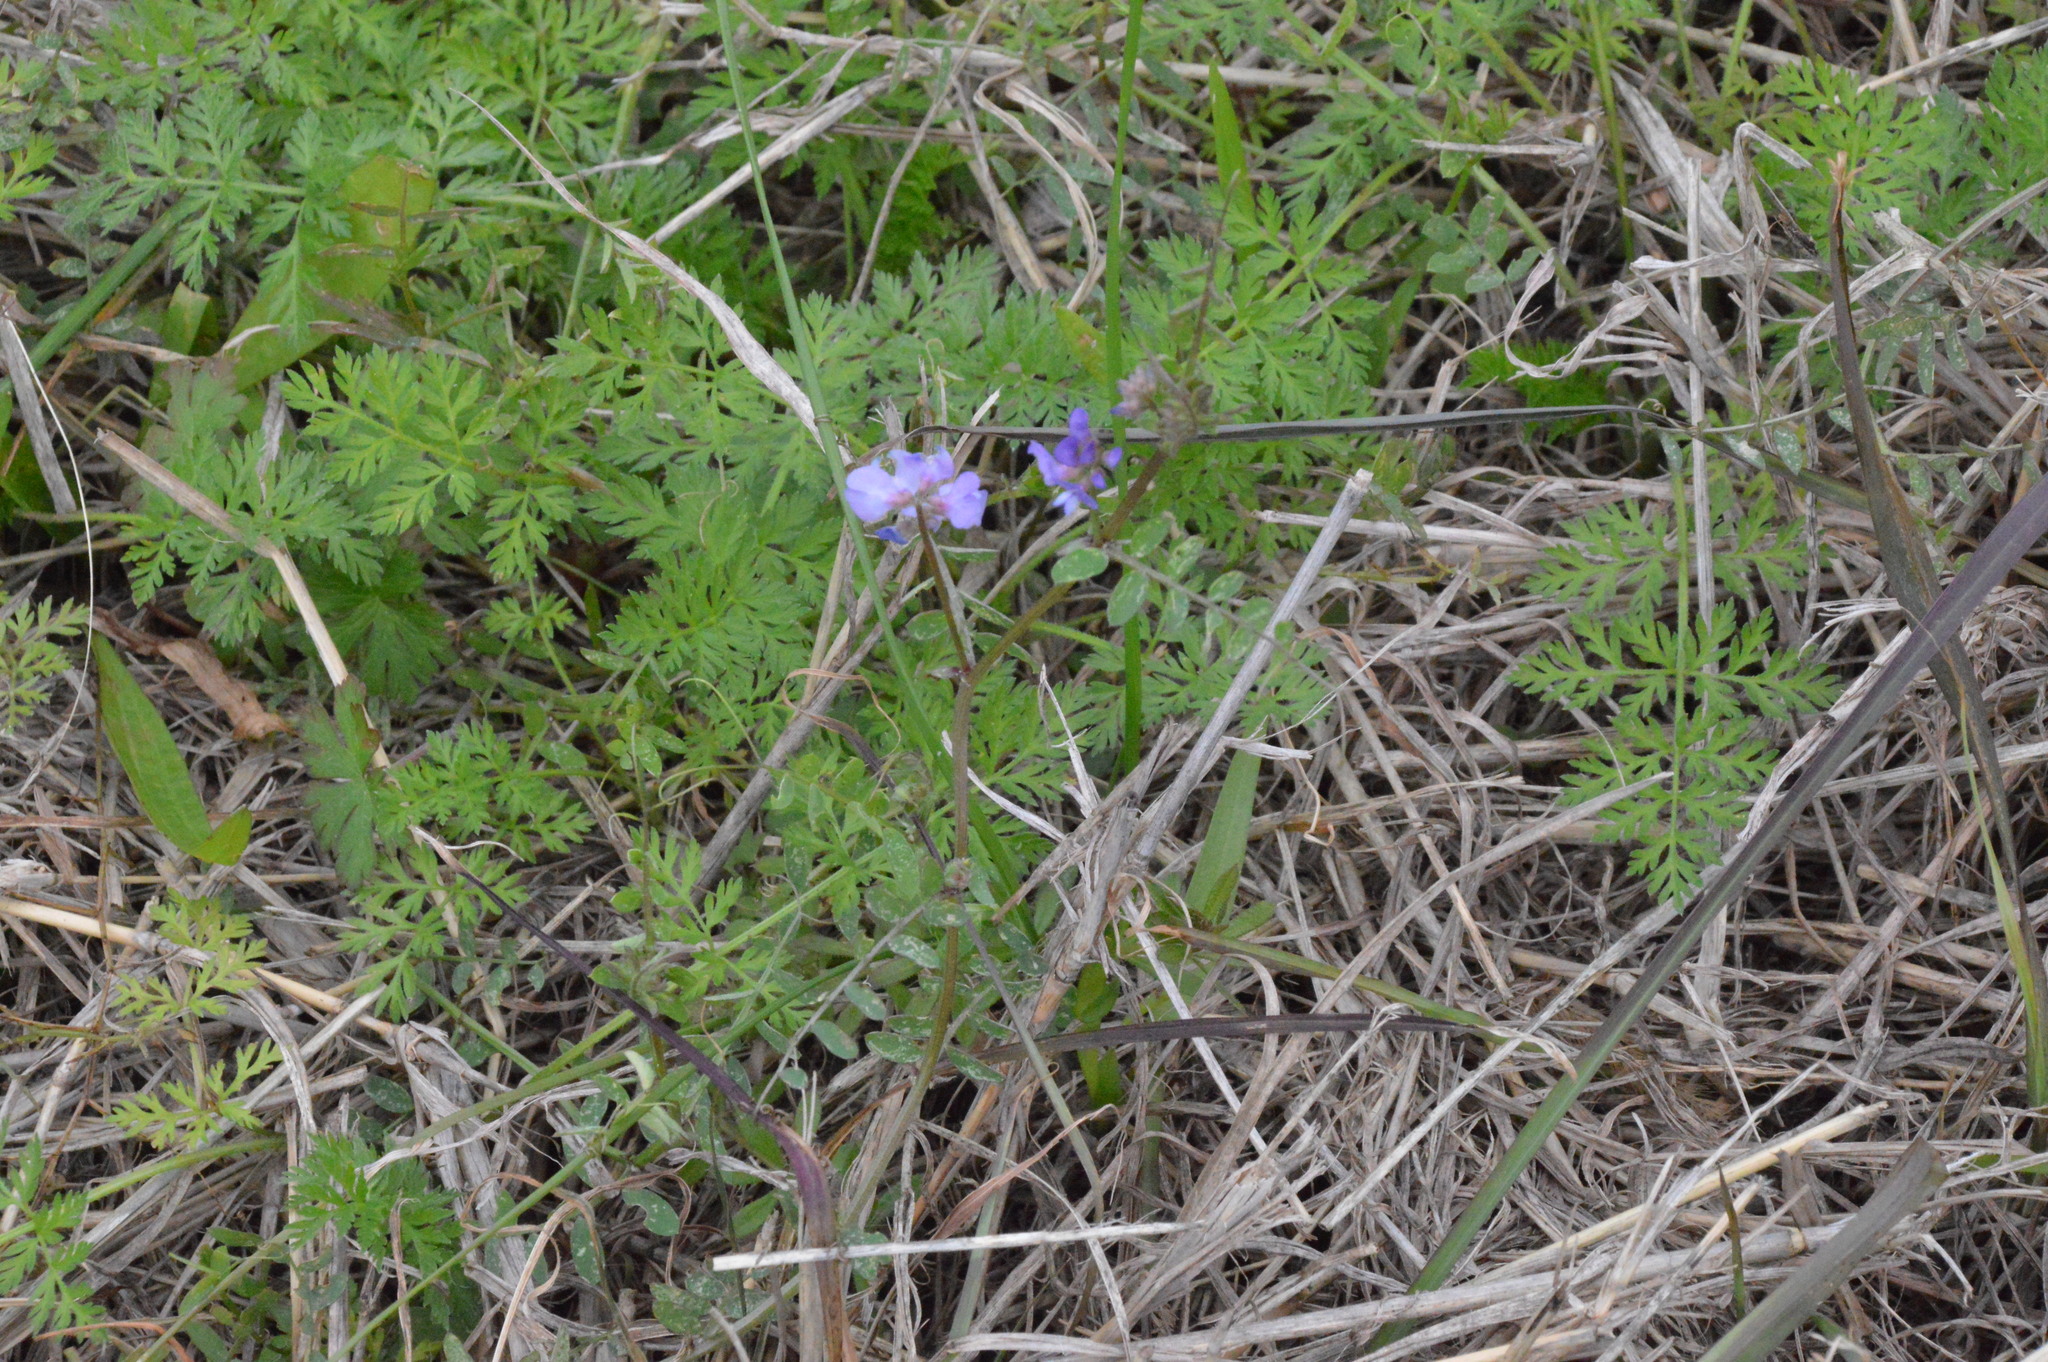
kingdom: Plantae
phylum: Tracheophyta
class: Magnoliopsida
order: Fabales
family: Fabaceae
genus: Vicia
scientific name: Vicia ludoviciana
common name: Louisiana vetch
